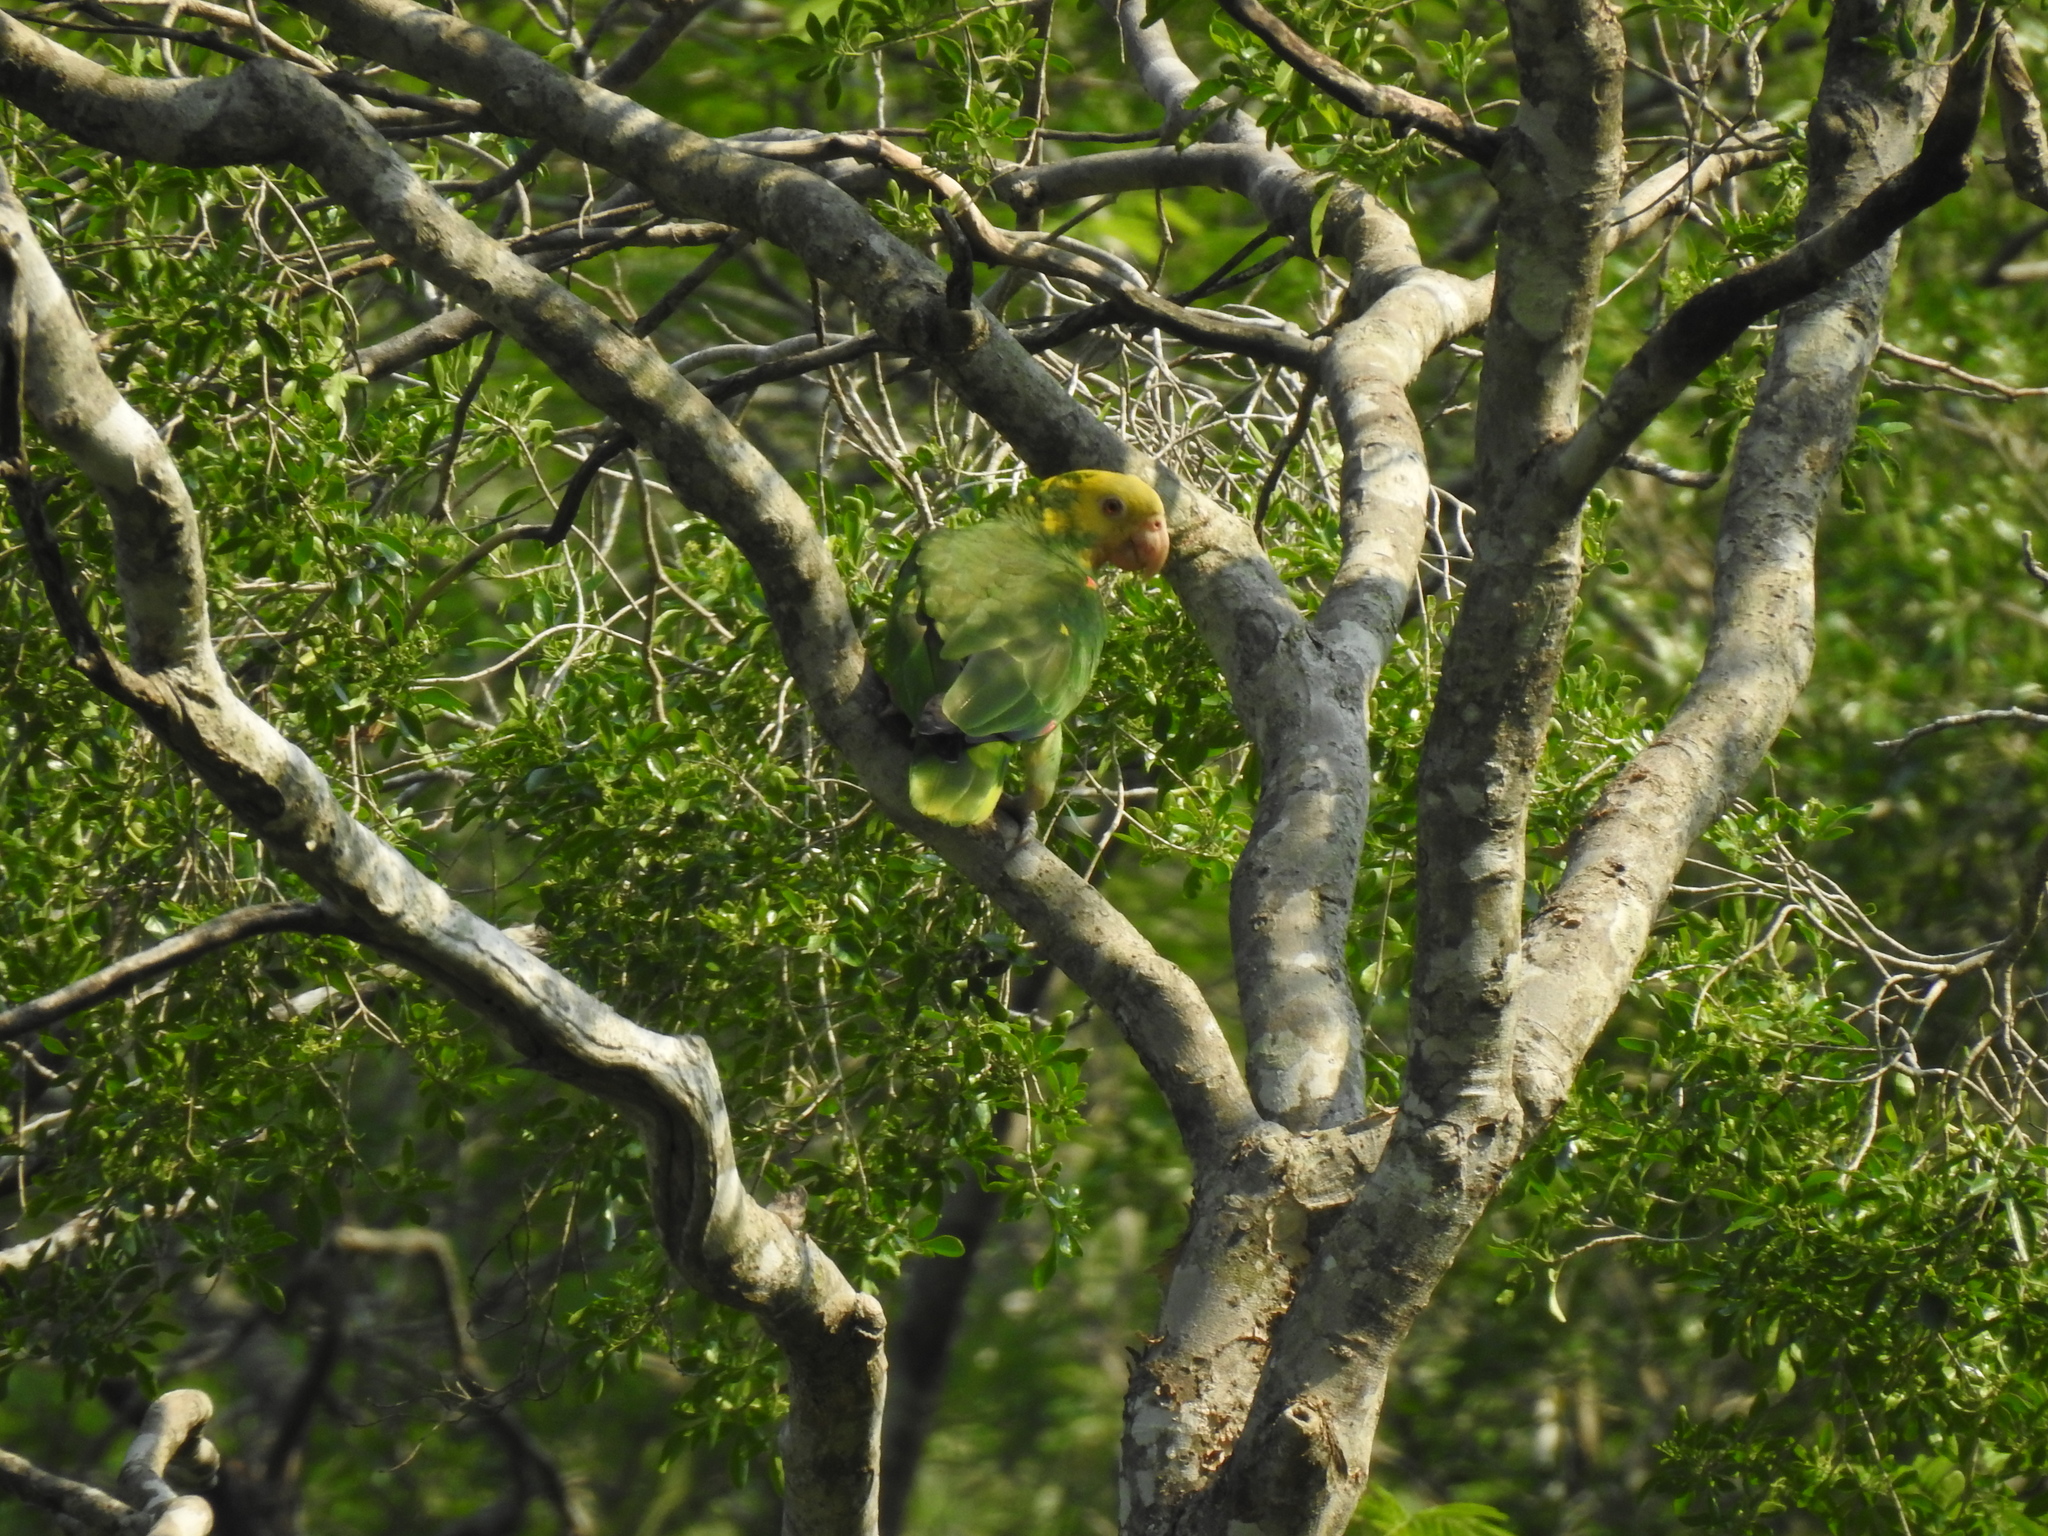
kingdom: Animalia
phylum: Chordata
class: Aves
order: Psittaciformes
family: Psittacidae
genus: Amazona
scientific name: Amazona oratrix
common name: Yellow-headed amazon
